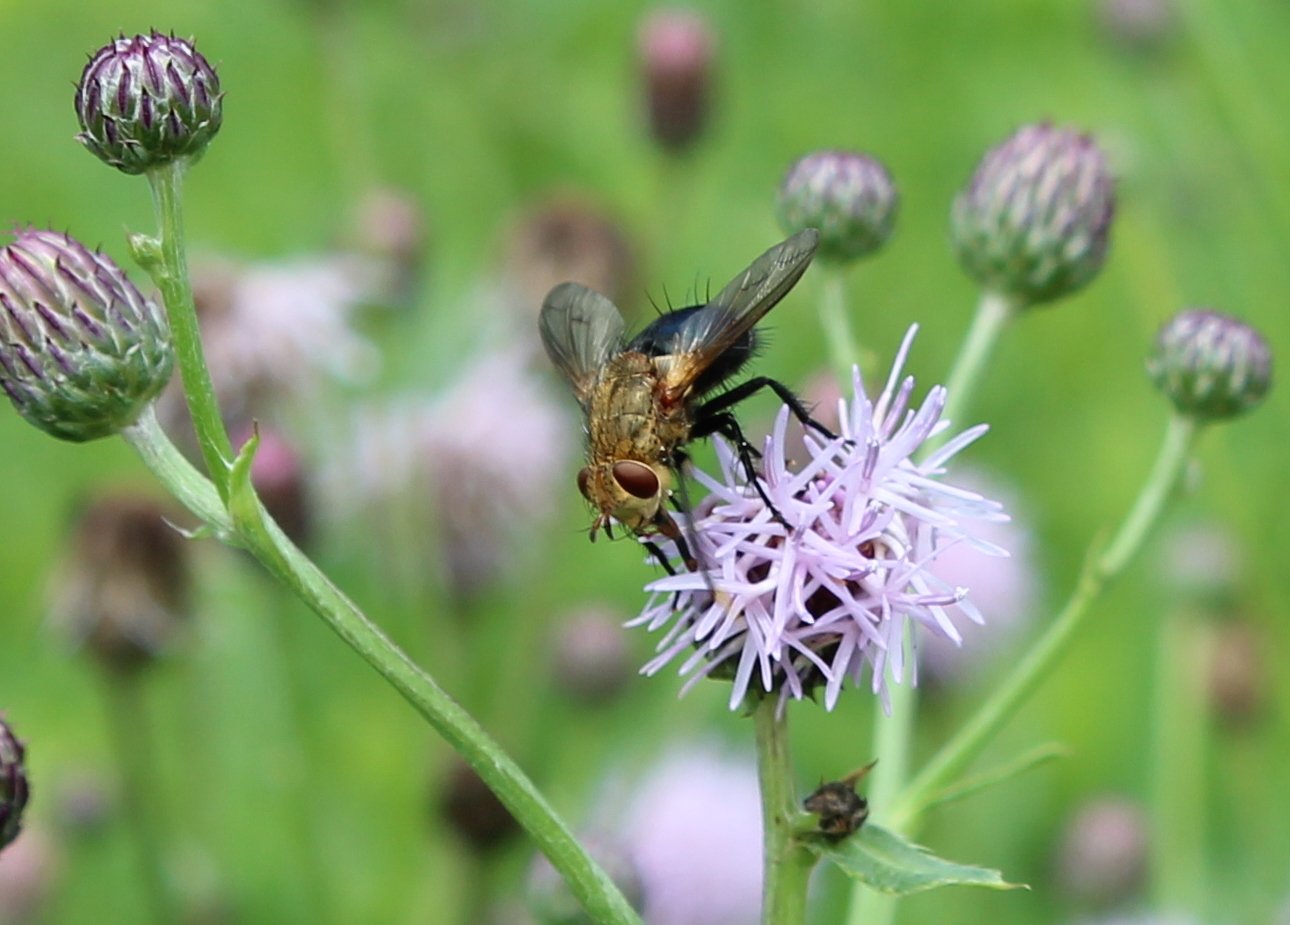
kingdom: Animalia
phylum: Arthropoda
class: Insecta
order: Diptera
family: Tachinidae
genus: Archytas
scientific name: Archytas apicifer
